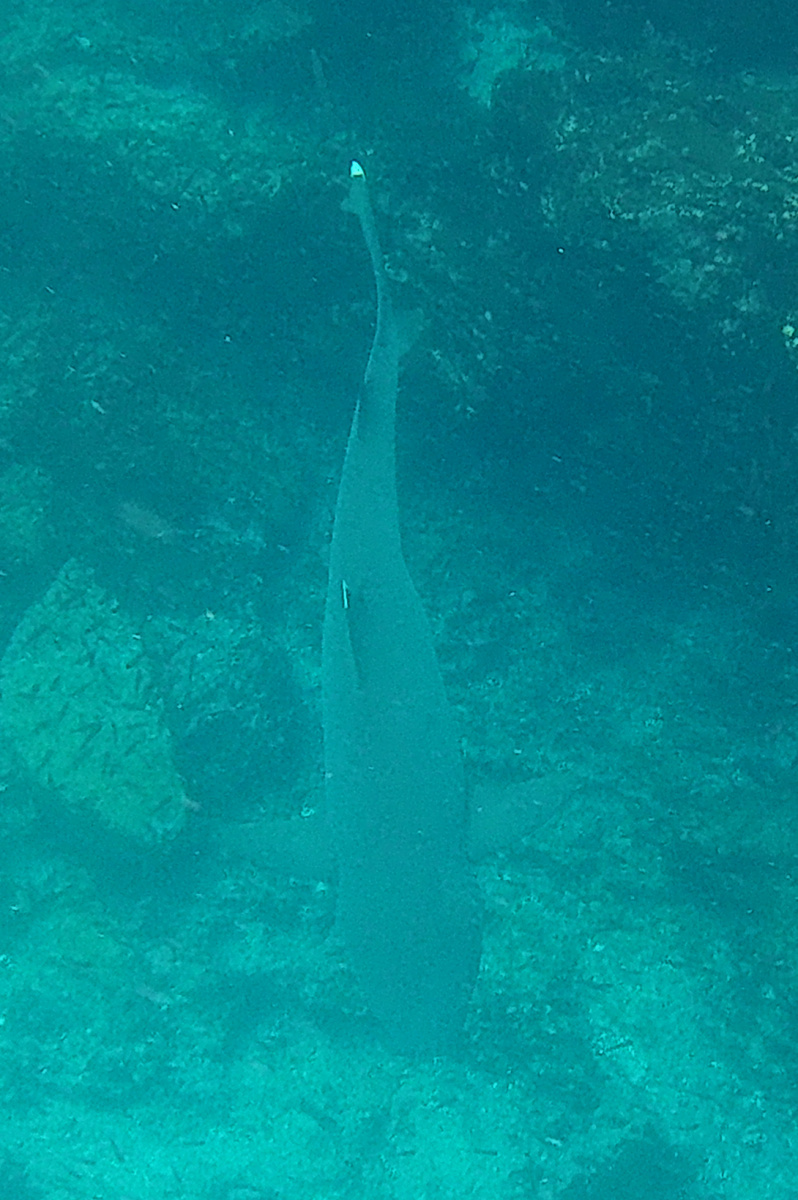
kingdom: Animalia
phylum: Chordata
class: Elasmobranchii
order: Carcharhiniformes
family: Carcharhinidae
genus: Triaenodon
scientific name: Triaenodon obesus
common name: Whitetip reef shark
